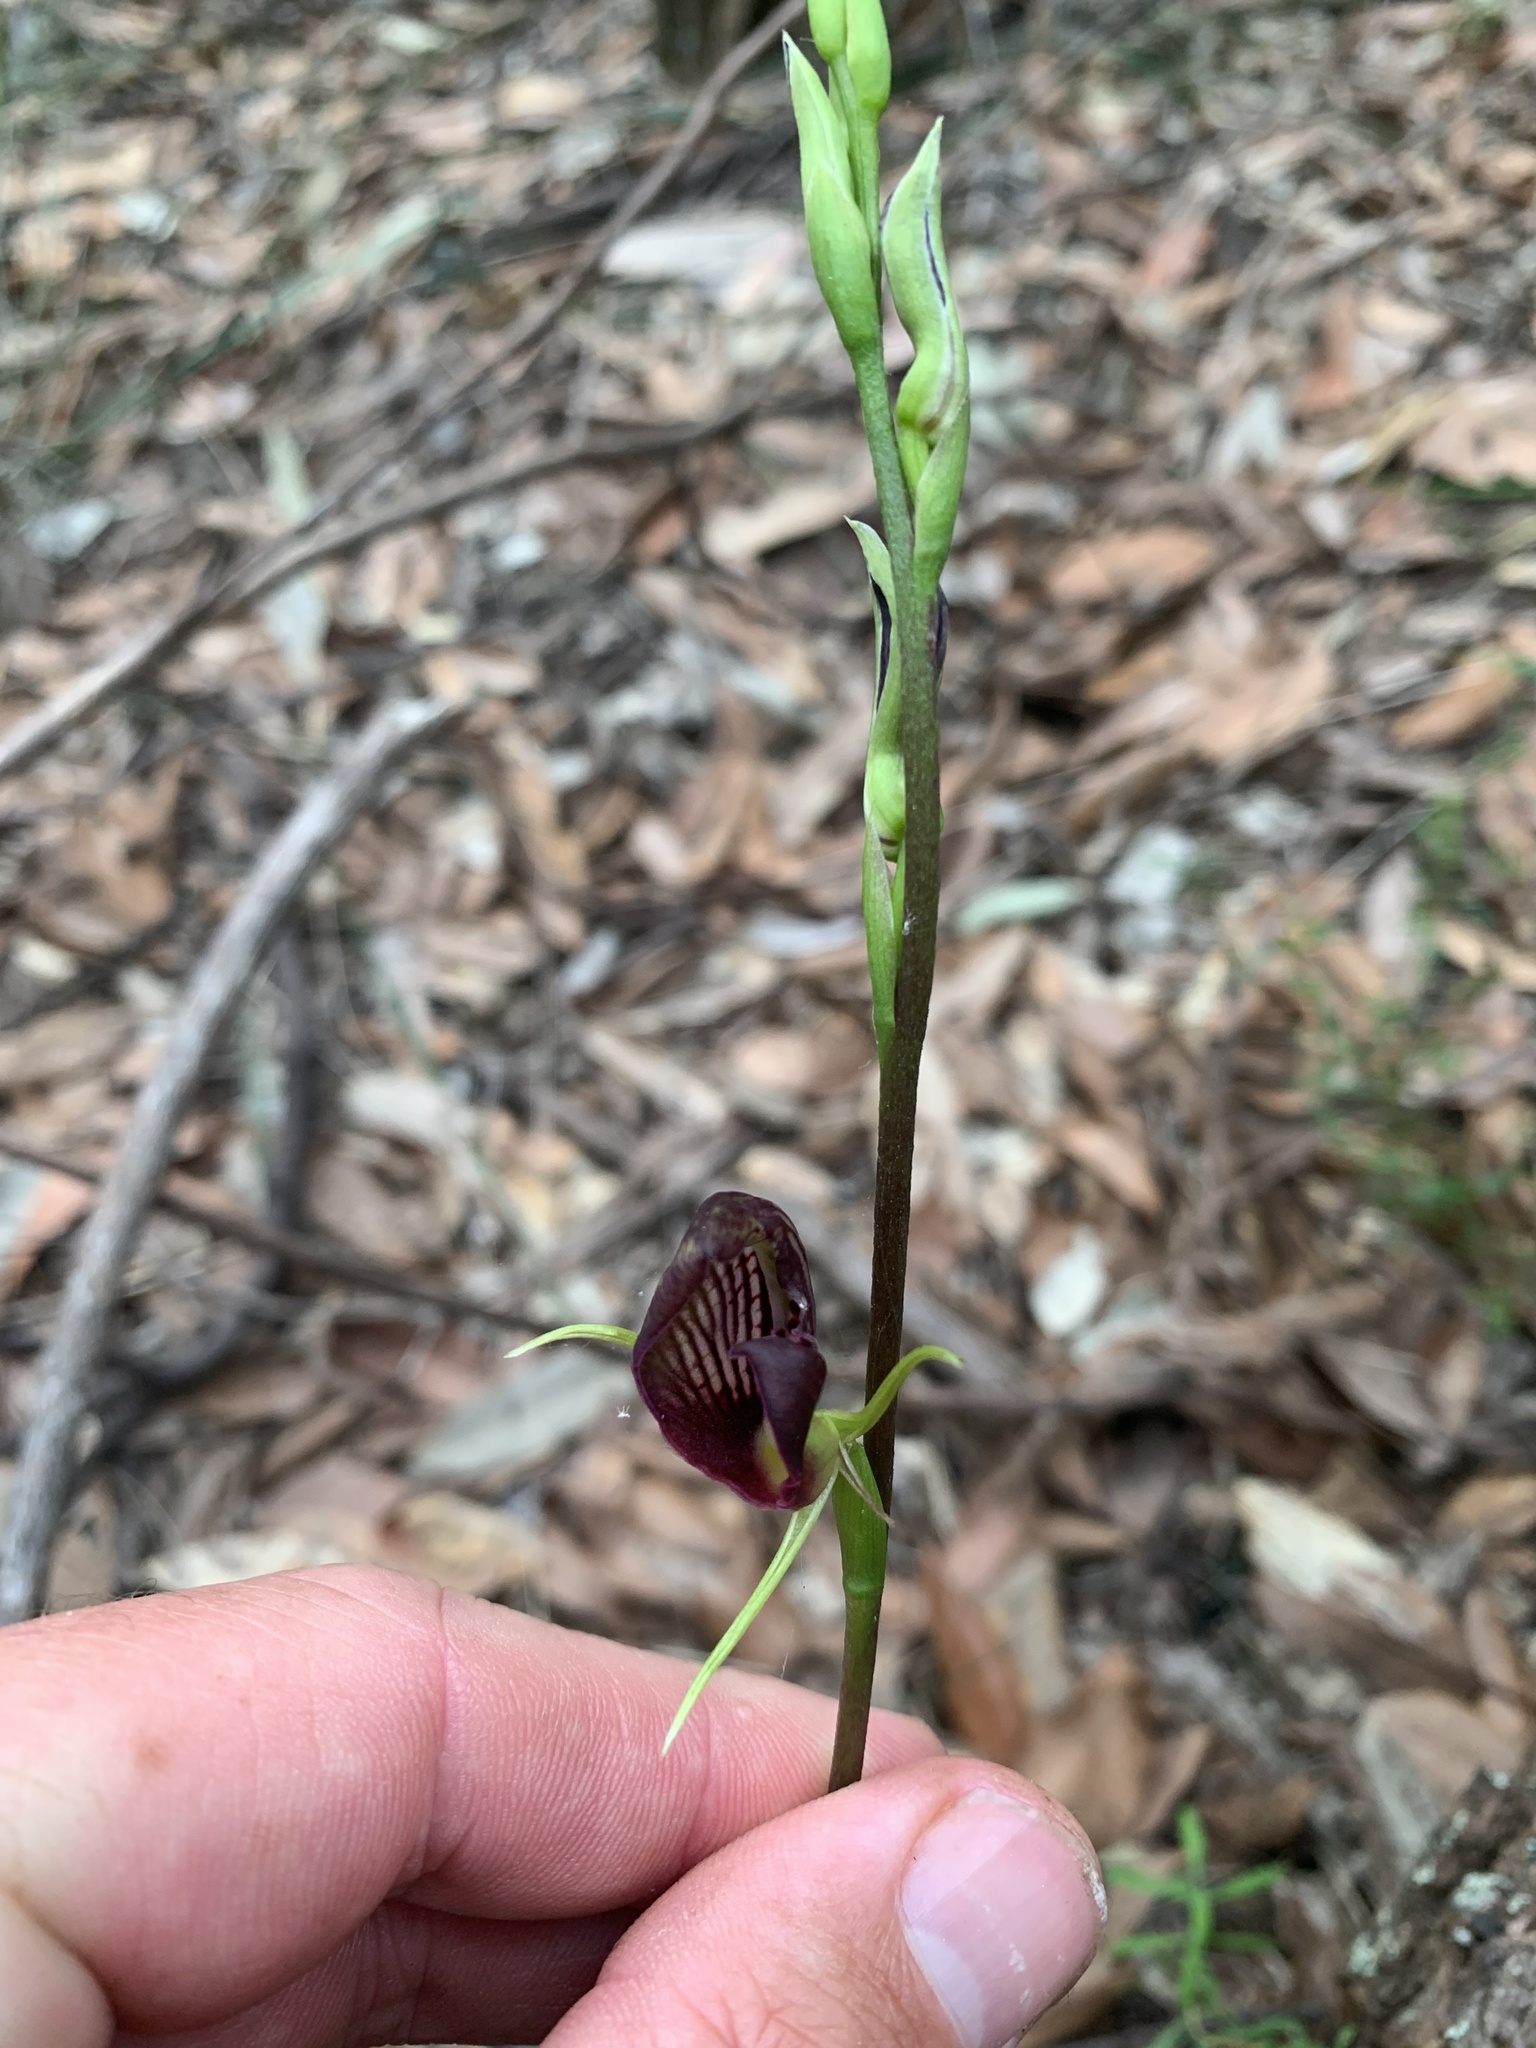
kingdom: Plantae
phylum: Tracheophyta
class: Liliopsida
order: Asparagales
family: Orchidaceae
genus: Cryptostylis
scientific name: Cryptostylis erecta
